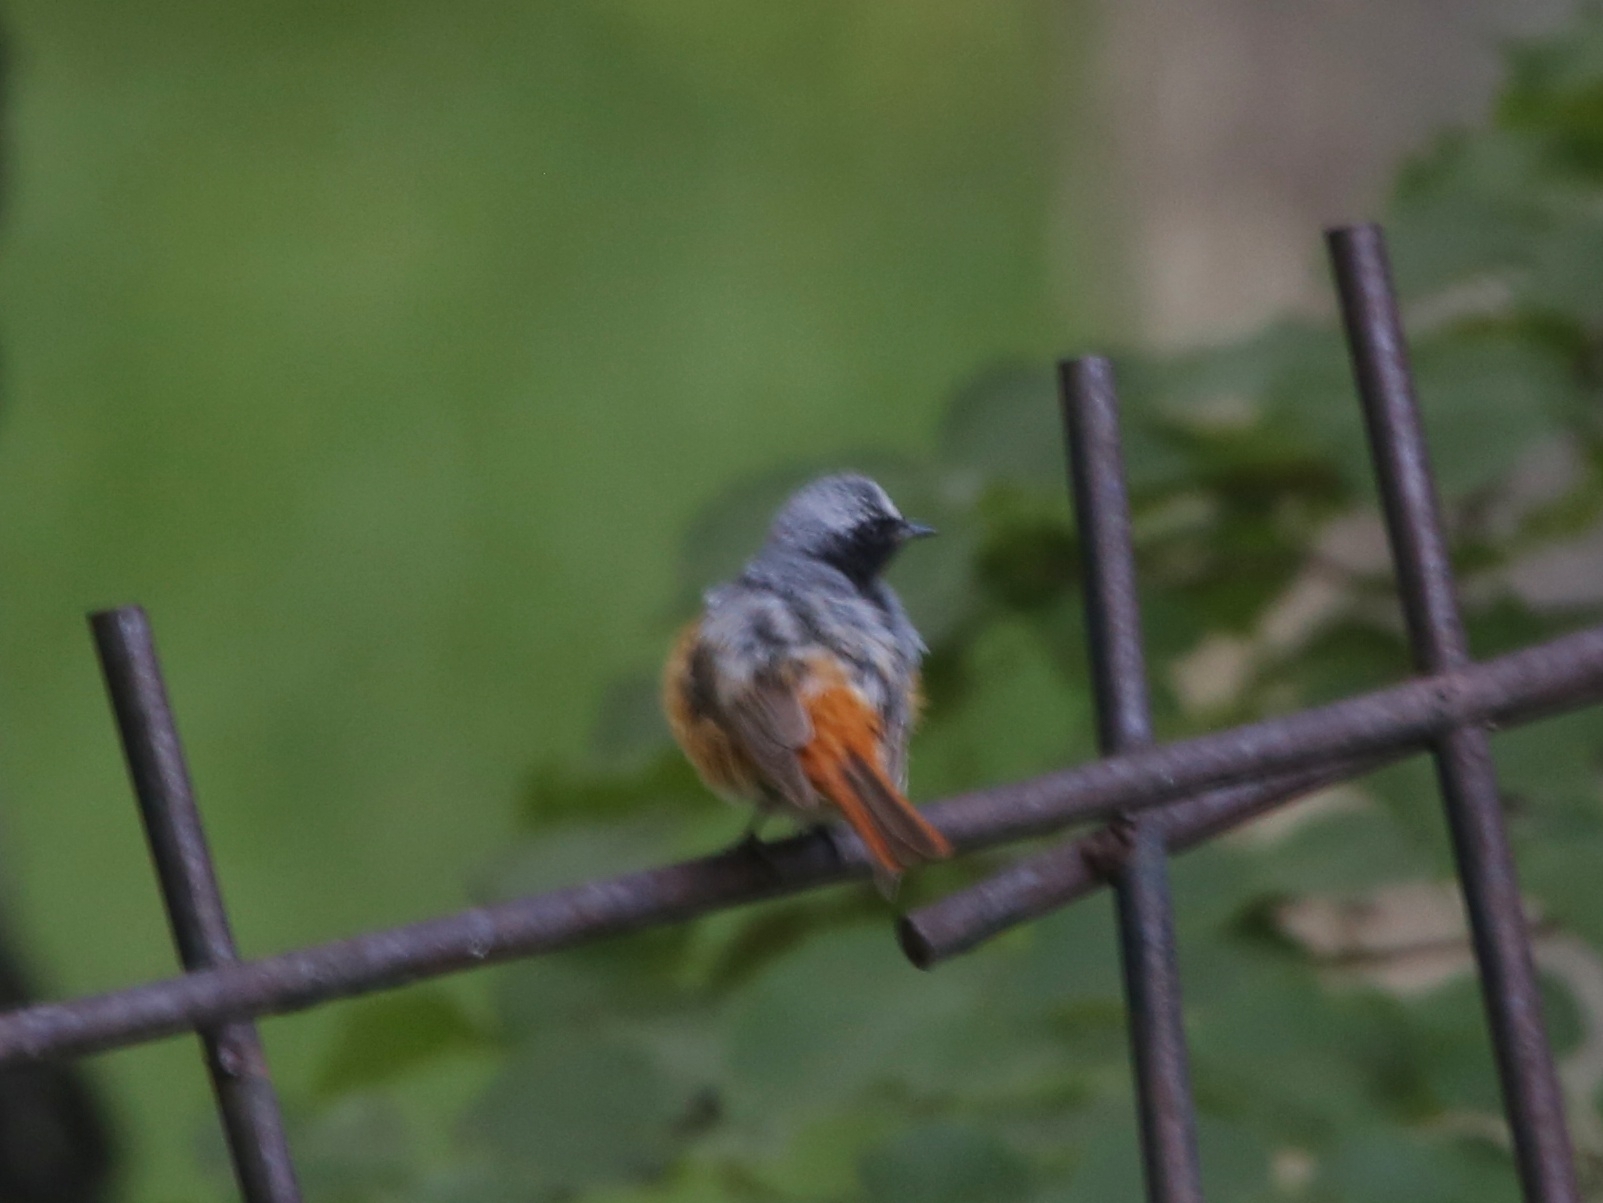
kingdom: Animalia
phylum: Chordata
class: Aves
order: Passeriformes
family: Muscicapidae
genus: Phoenicurus
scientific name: Phoenicurus phoenicurus
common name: Common redstart
